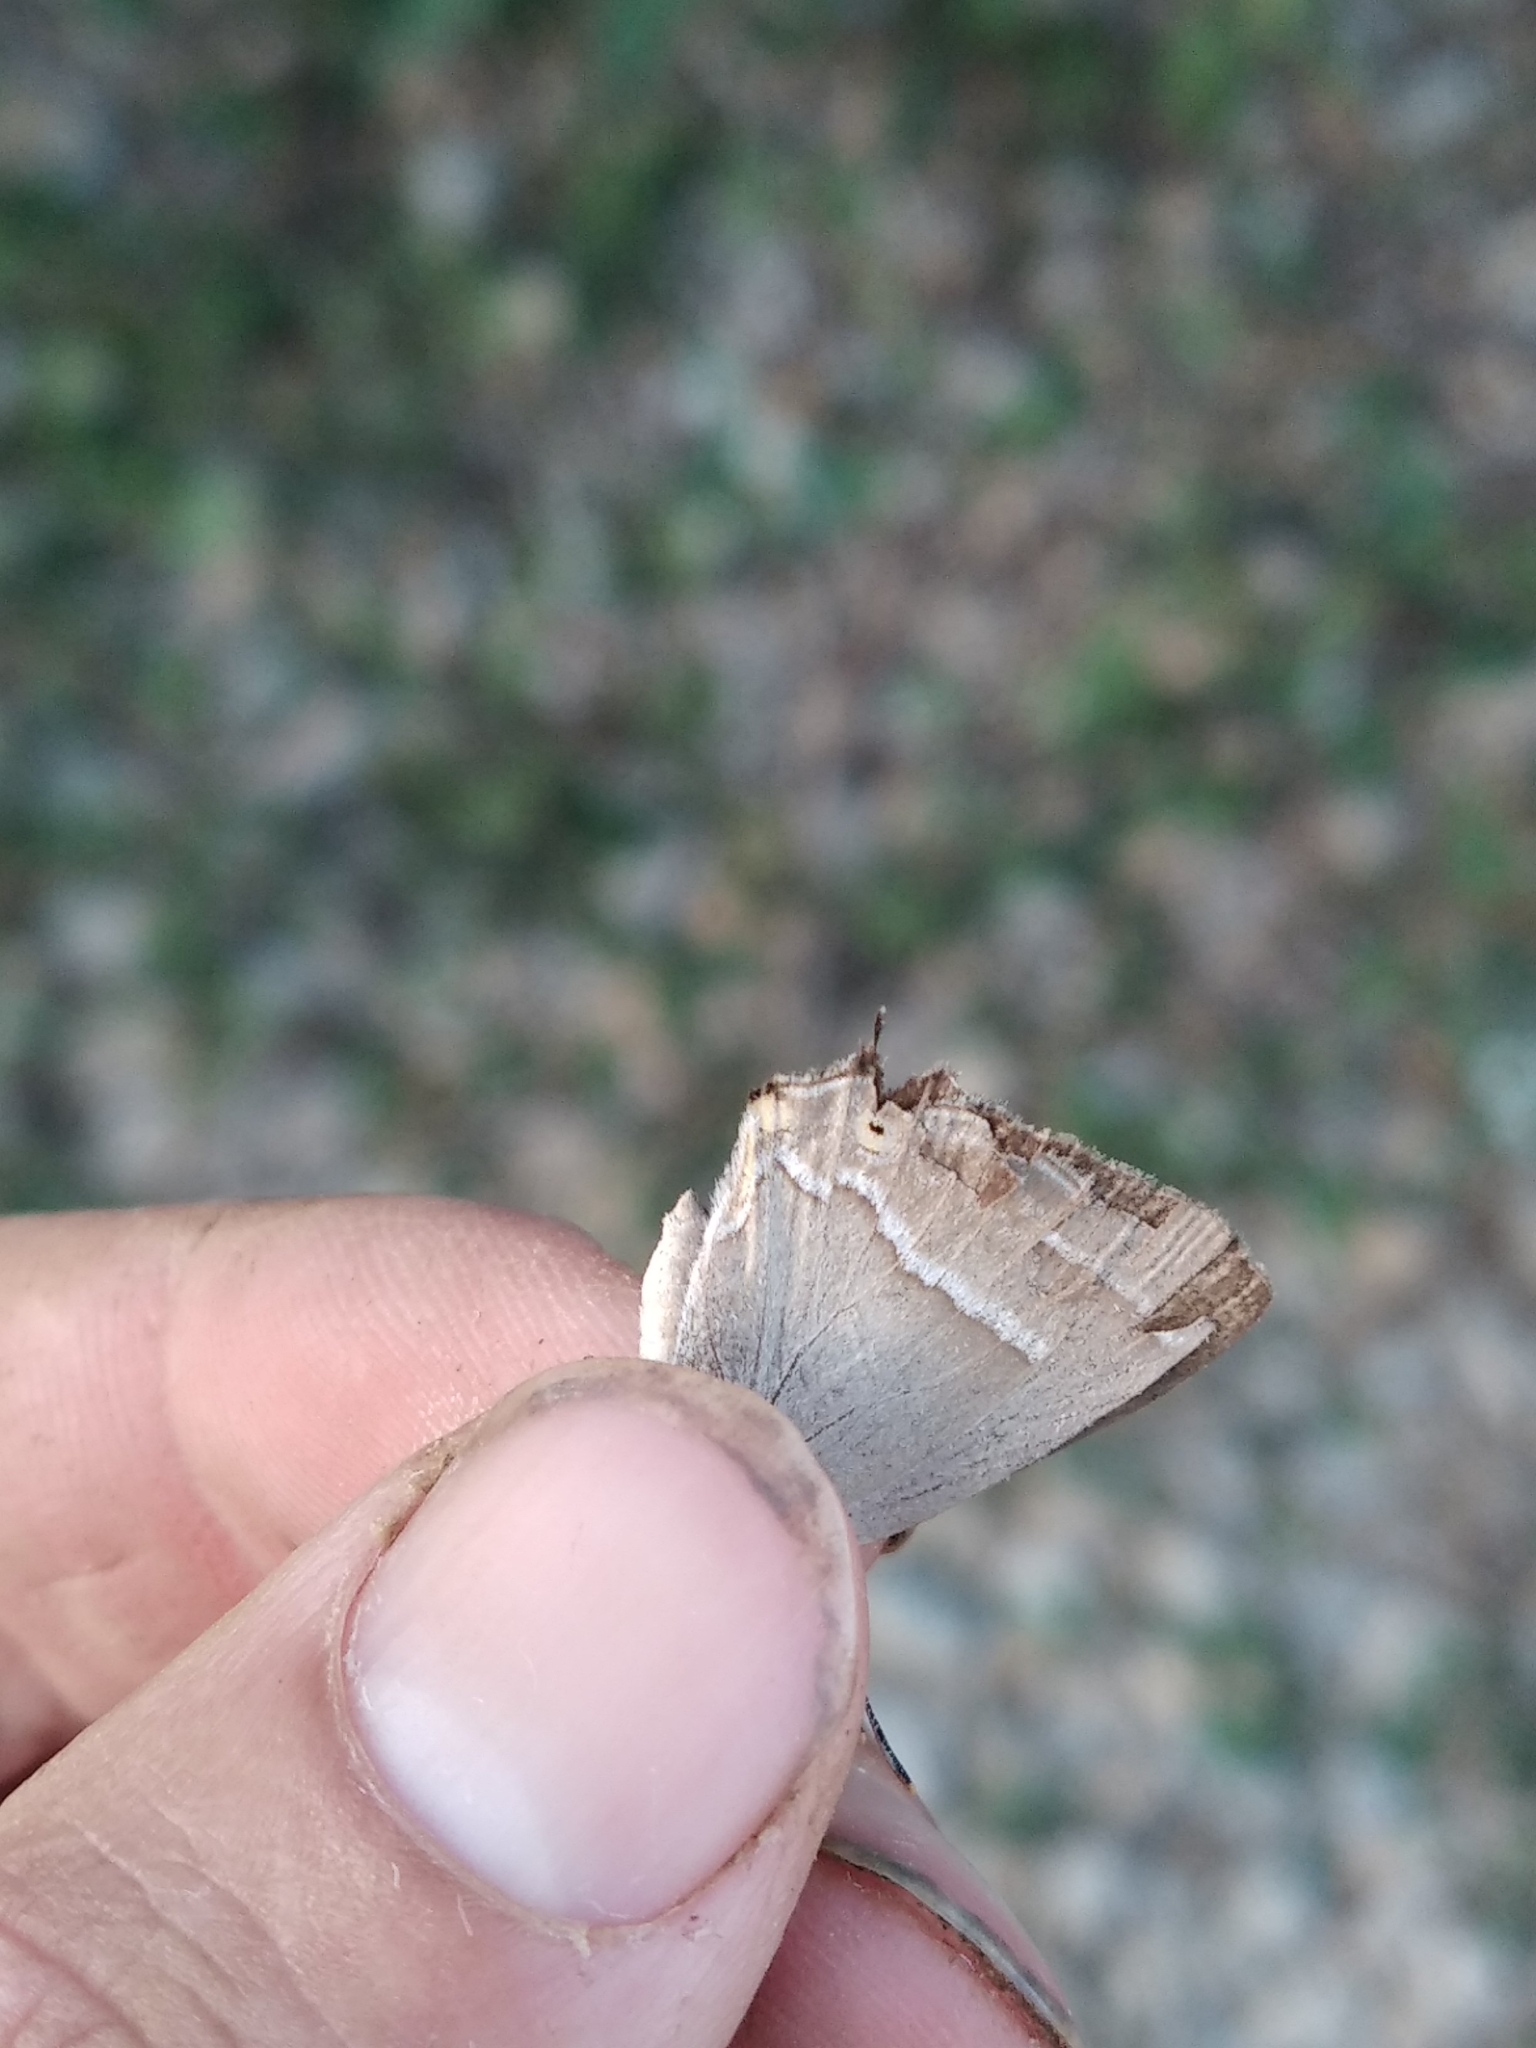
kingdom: Animalia
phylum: Arthropoda
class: Insecta
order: Lepidoptera
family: Lycaenidae
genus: Quercusia
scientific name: Quercusia quercus
